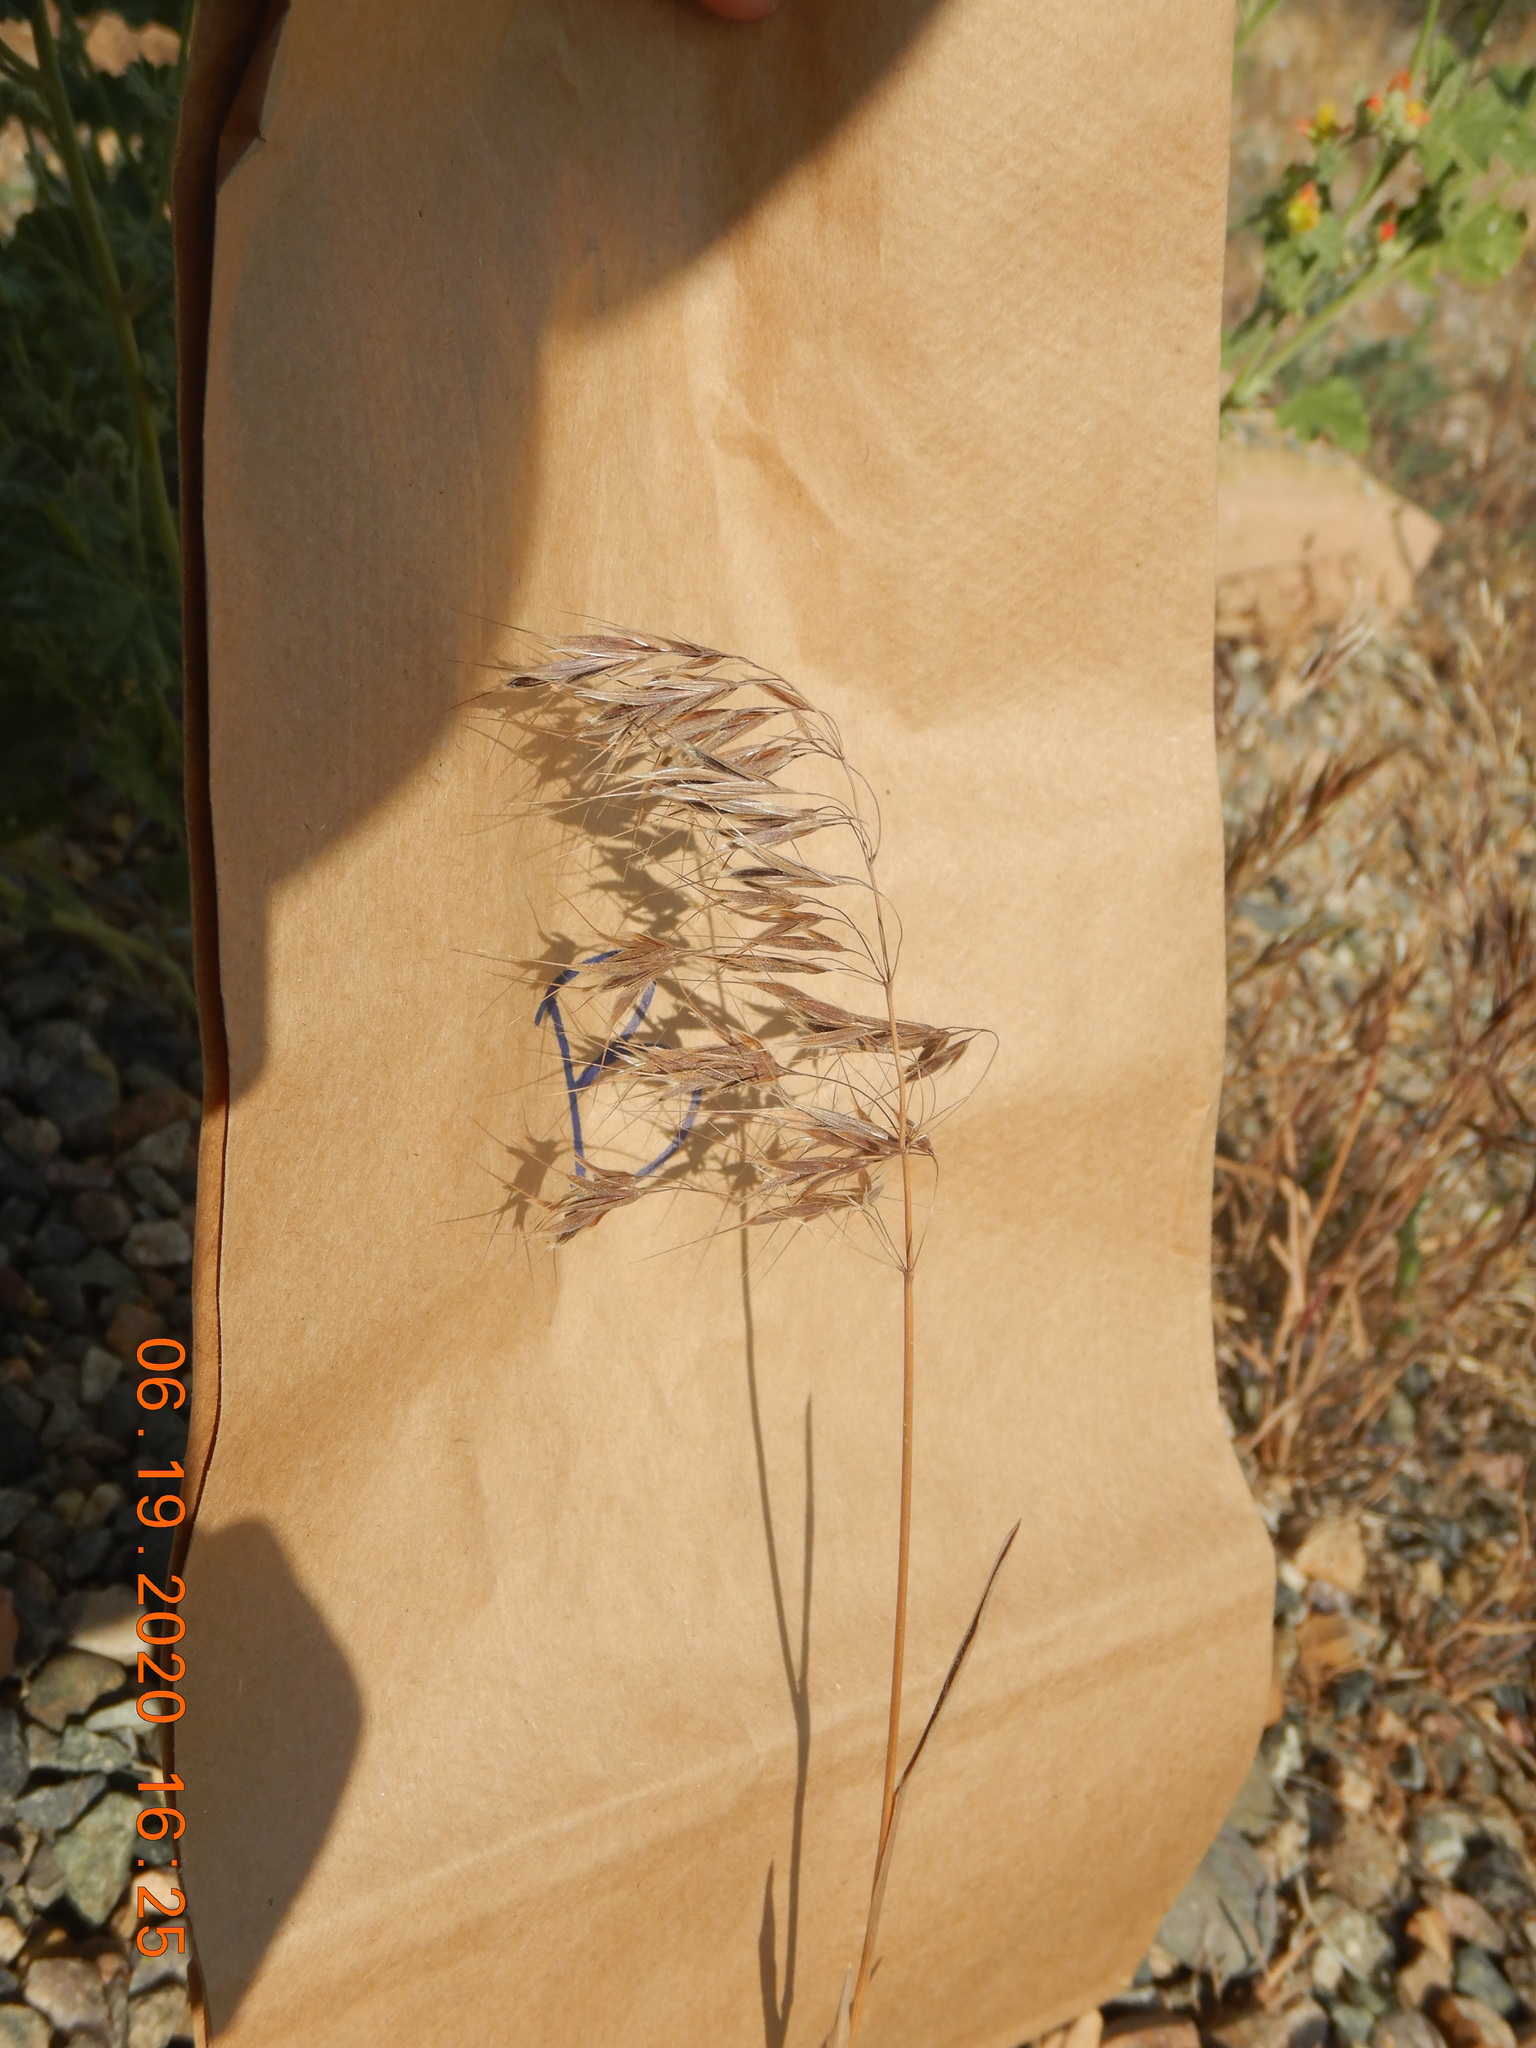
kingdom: Plantae
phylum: Tracheophyta
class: Liliopsida
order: Poales
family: Poaceae
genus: Bromus
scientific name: Bromus tectorum
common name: Cheatgrass
